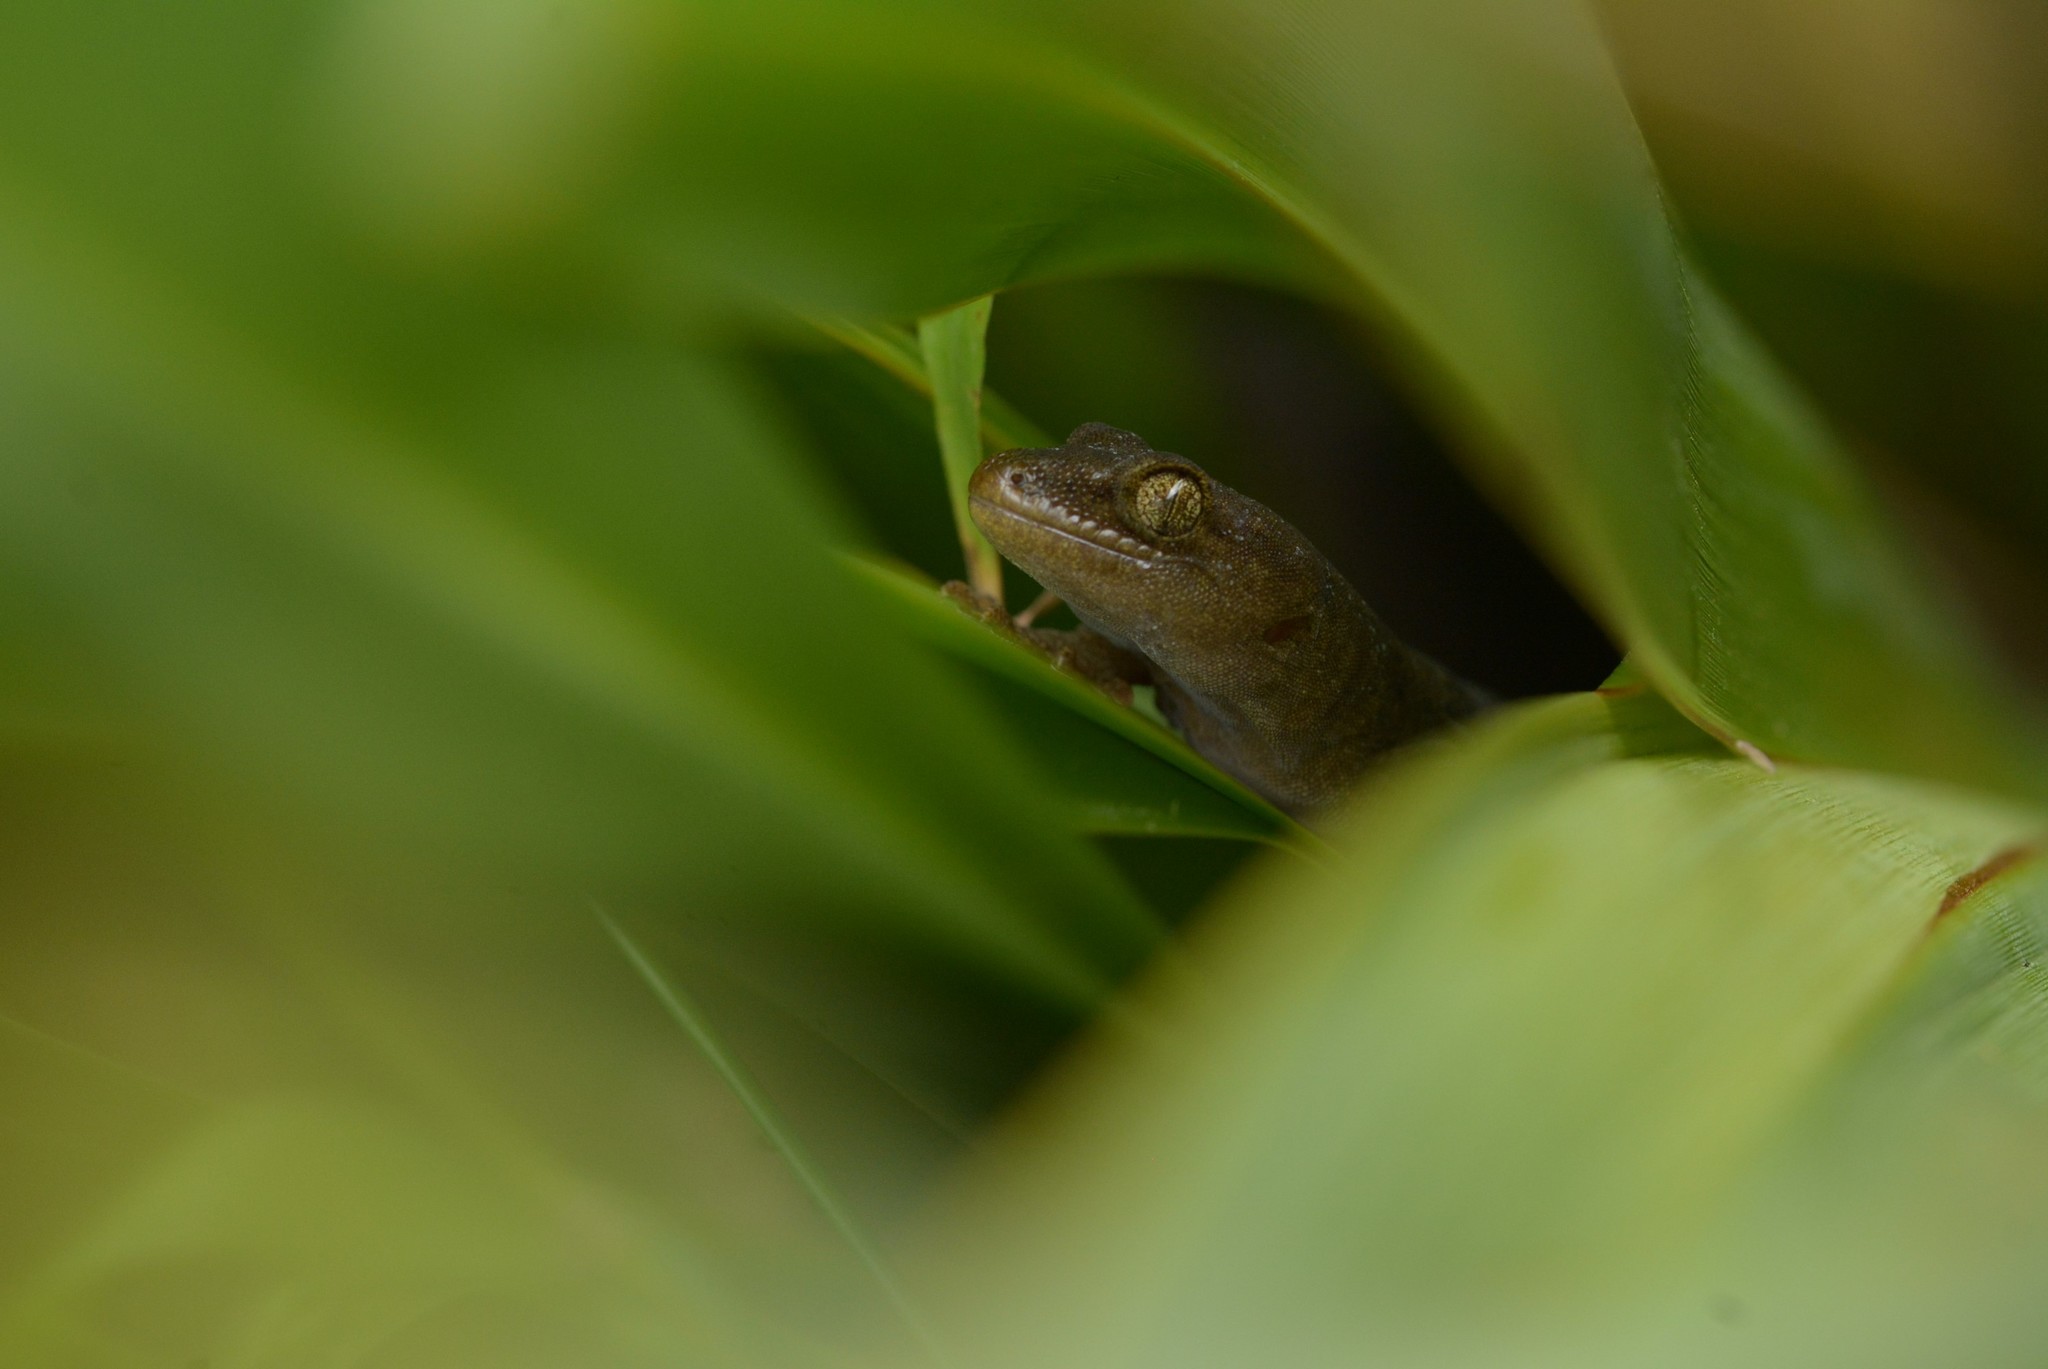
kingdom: Animalia
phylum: Chordata
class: Squamata
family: Diplodactylidae
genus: Woodworthia
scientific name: Woodworthia maculata
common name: Raukawa gecko
